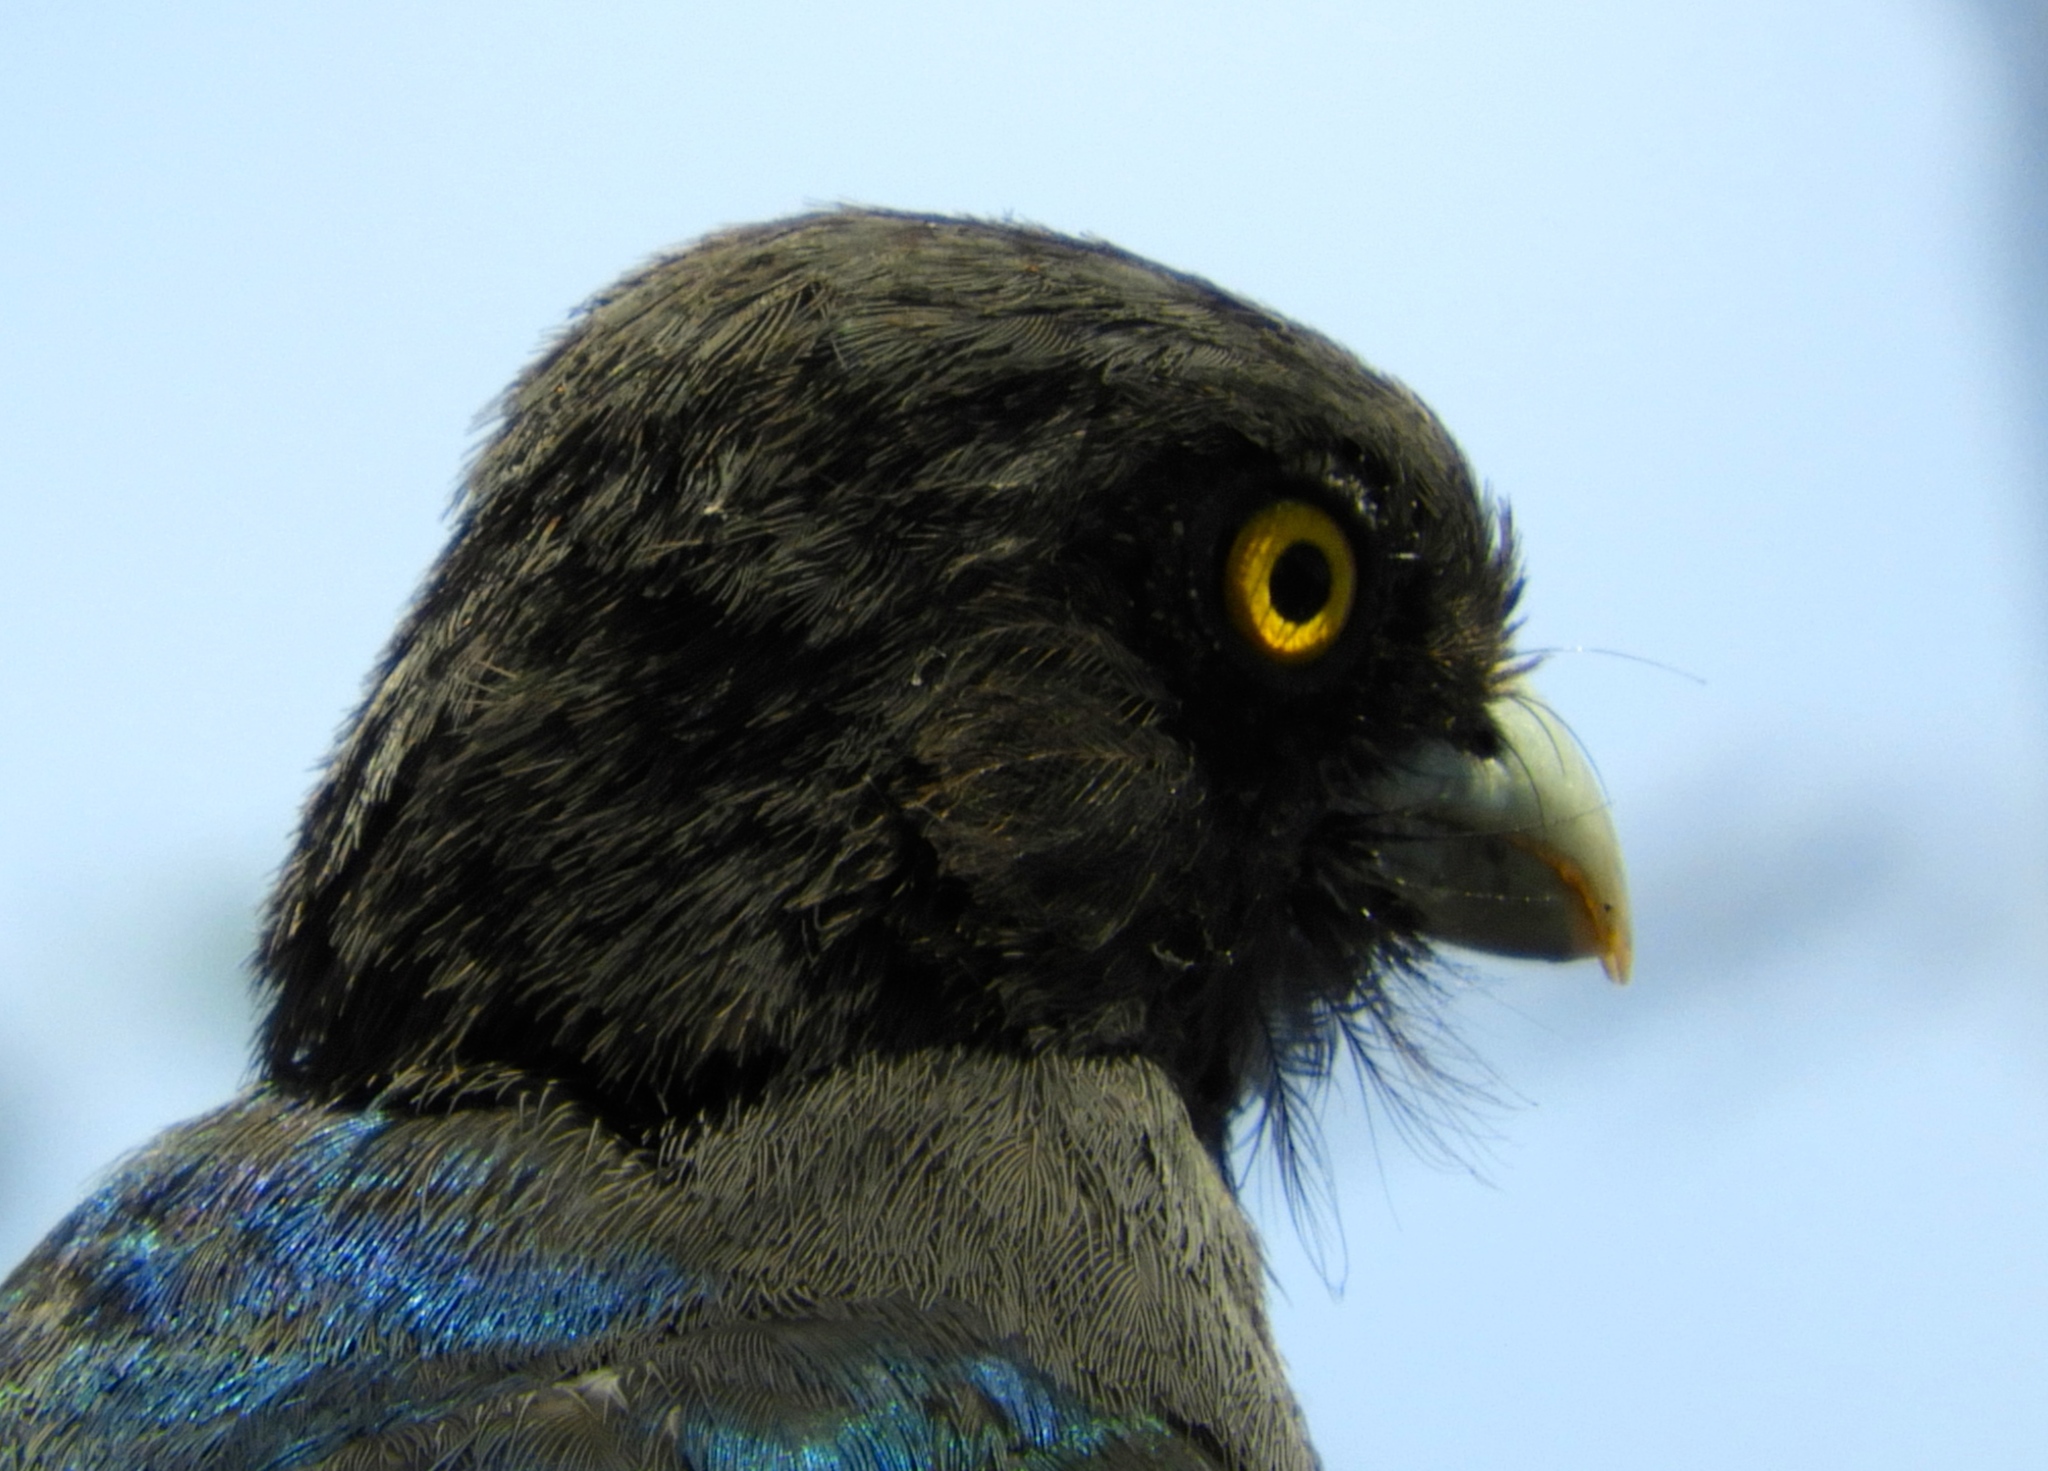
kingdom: Animalia
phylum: Chordata
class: Aves
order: Trogoniformes
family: Trogonidae
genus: Trogon
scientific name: Trogon citreolus
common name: Citreoline trogon
